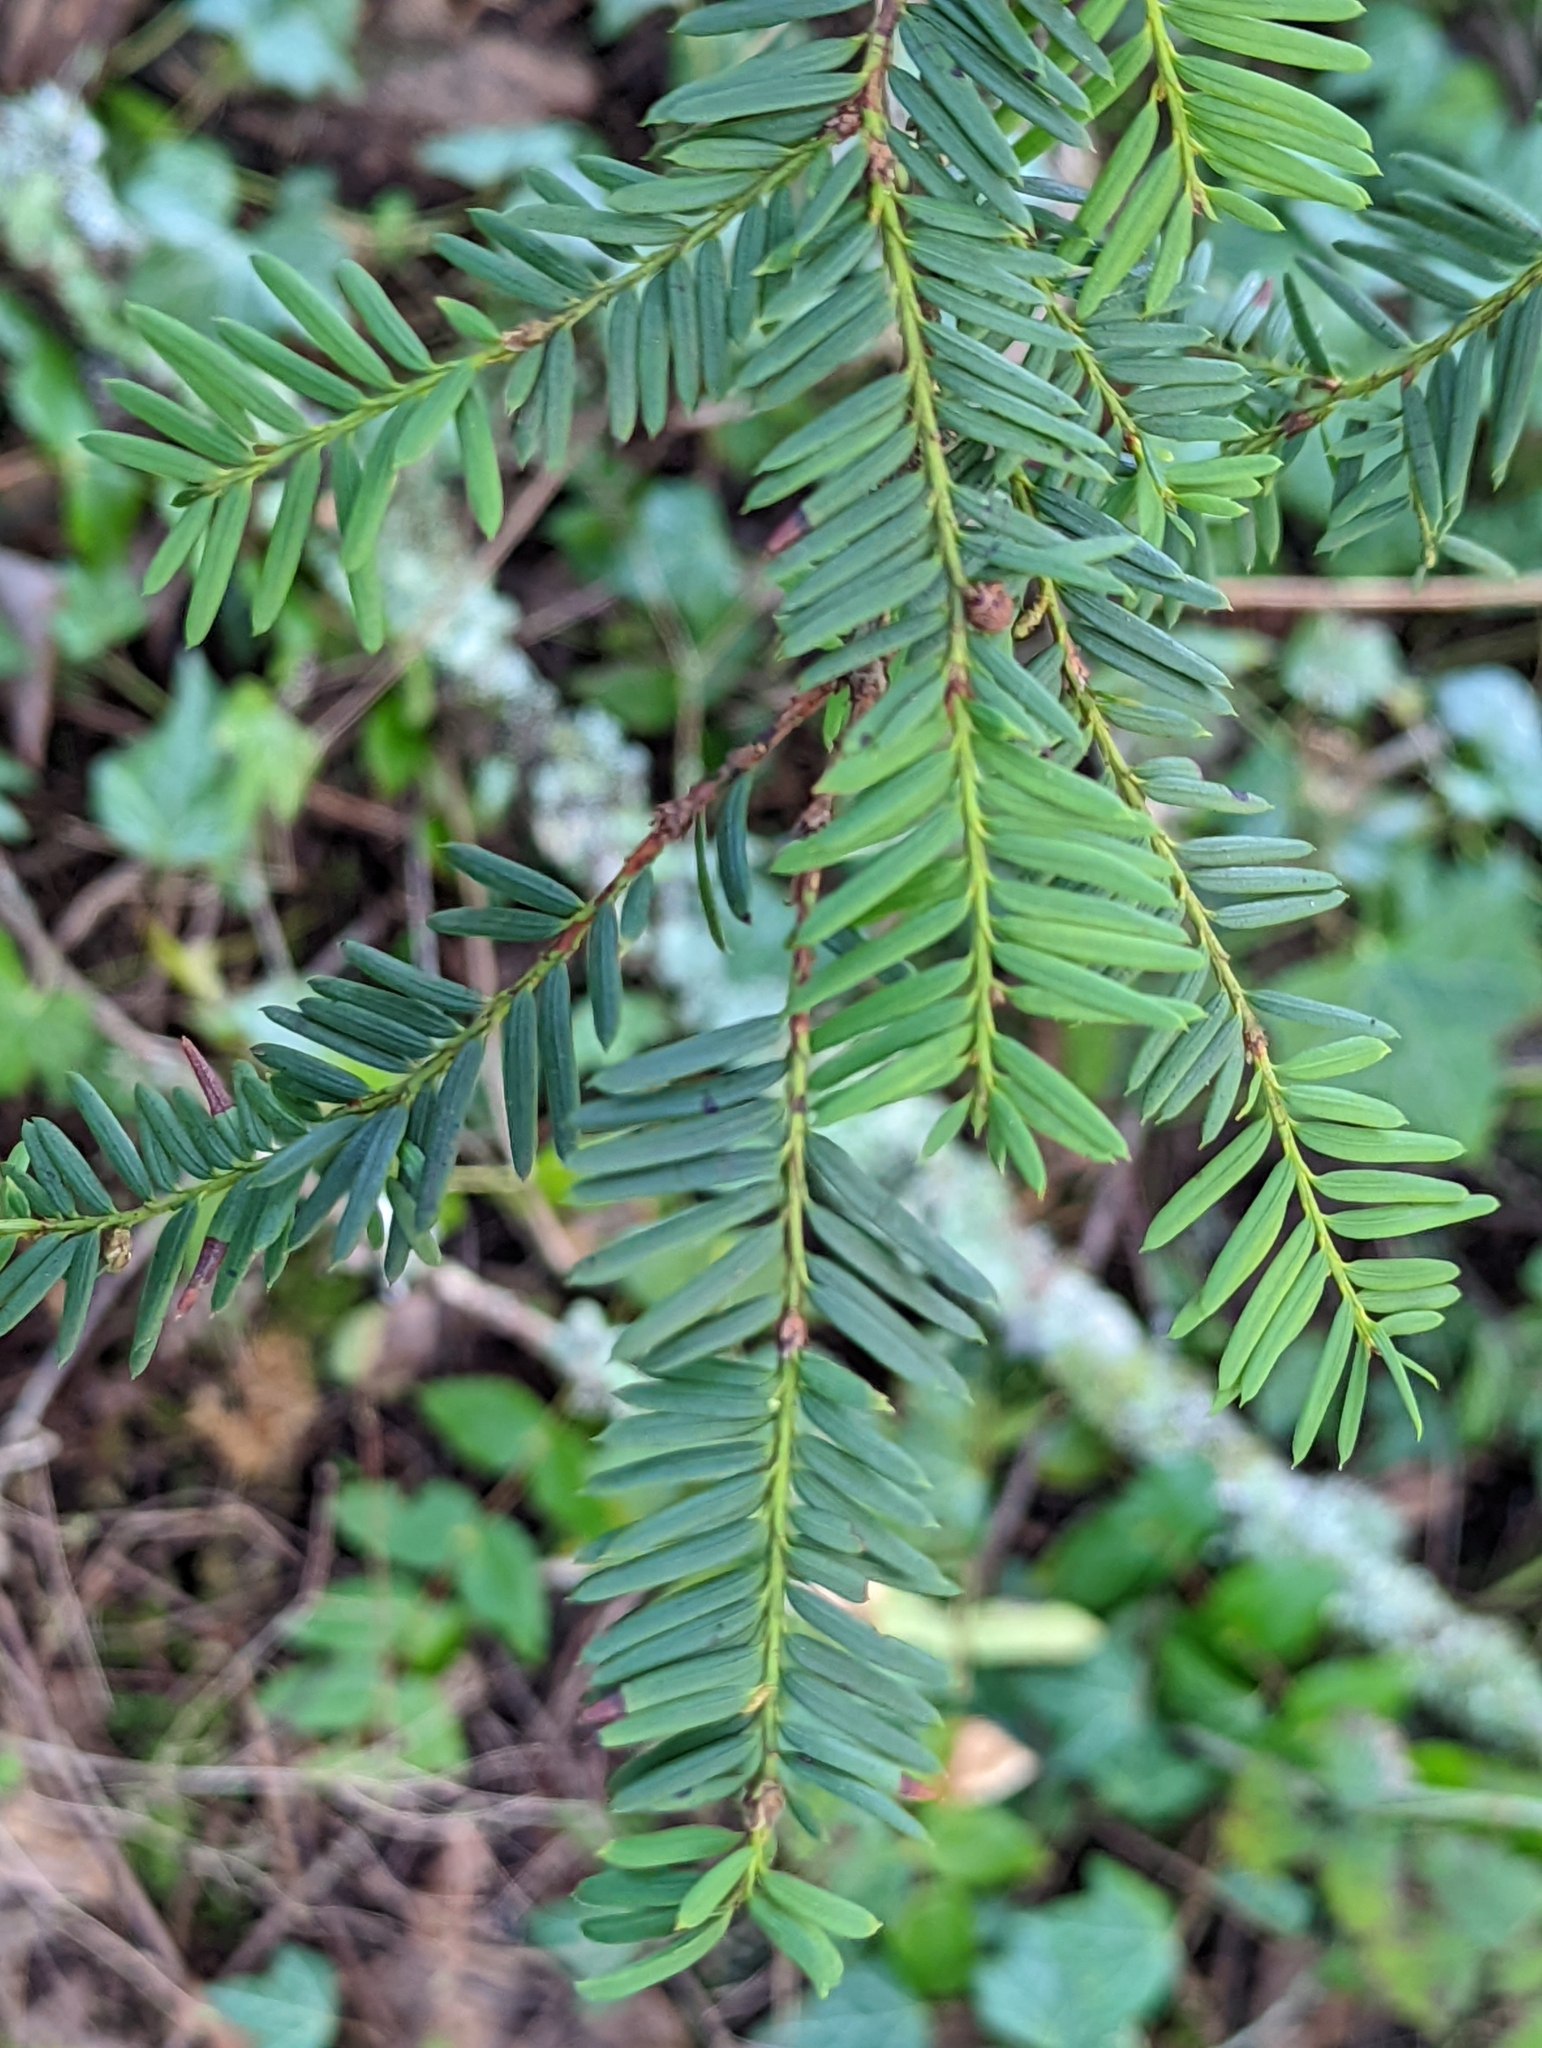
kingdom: Plantae
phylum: Tracheophyta
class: Pinopsida
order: Pinales
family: Taxaceae
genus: Taxus
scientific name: Taxus brevifolia
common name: Pacific yew
